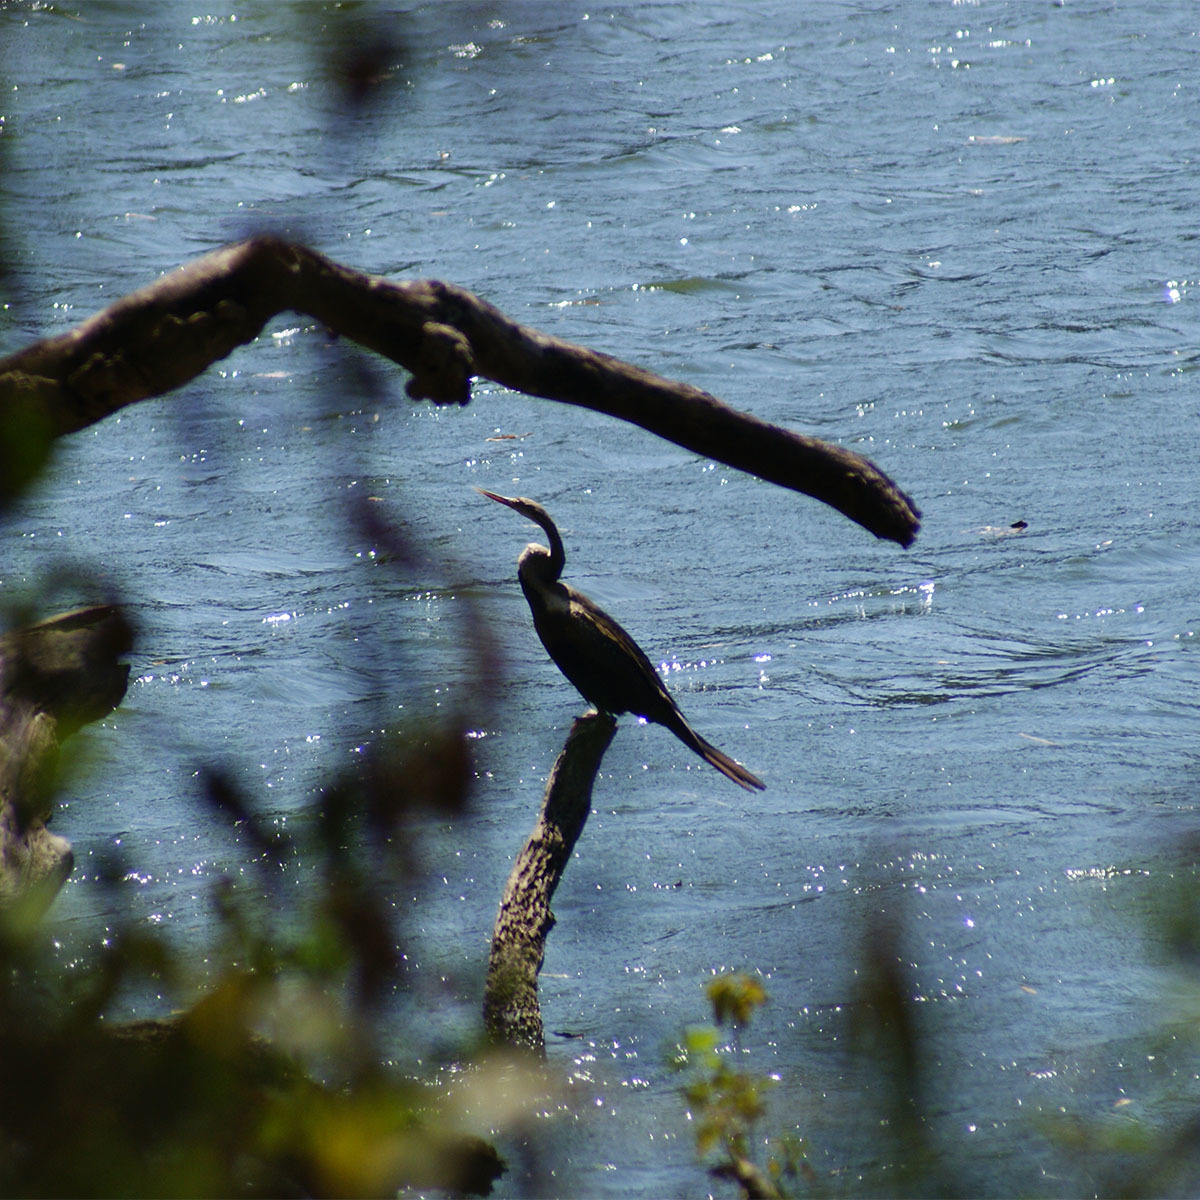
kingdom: Animalia
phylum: Chordata
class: Aves
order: Suliformes
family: Anhingidae
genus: Anhinga
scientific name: Anhinga melanogaster
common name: Oriental darter
